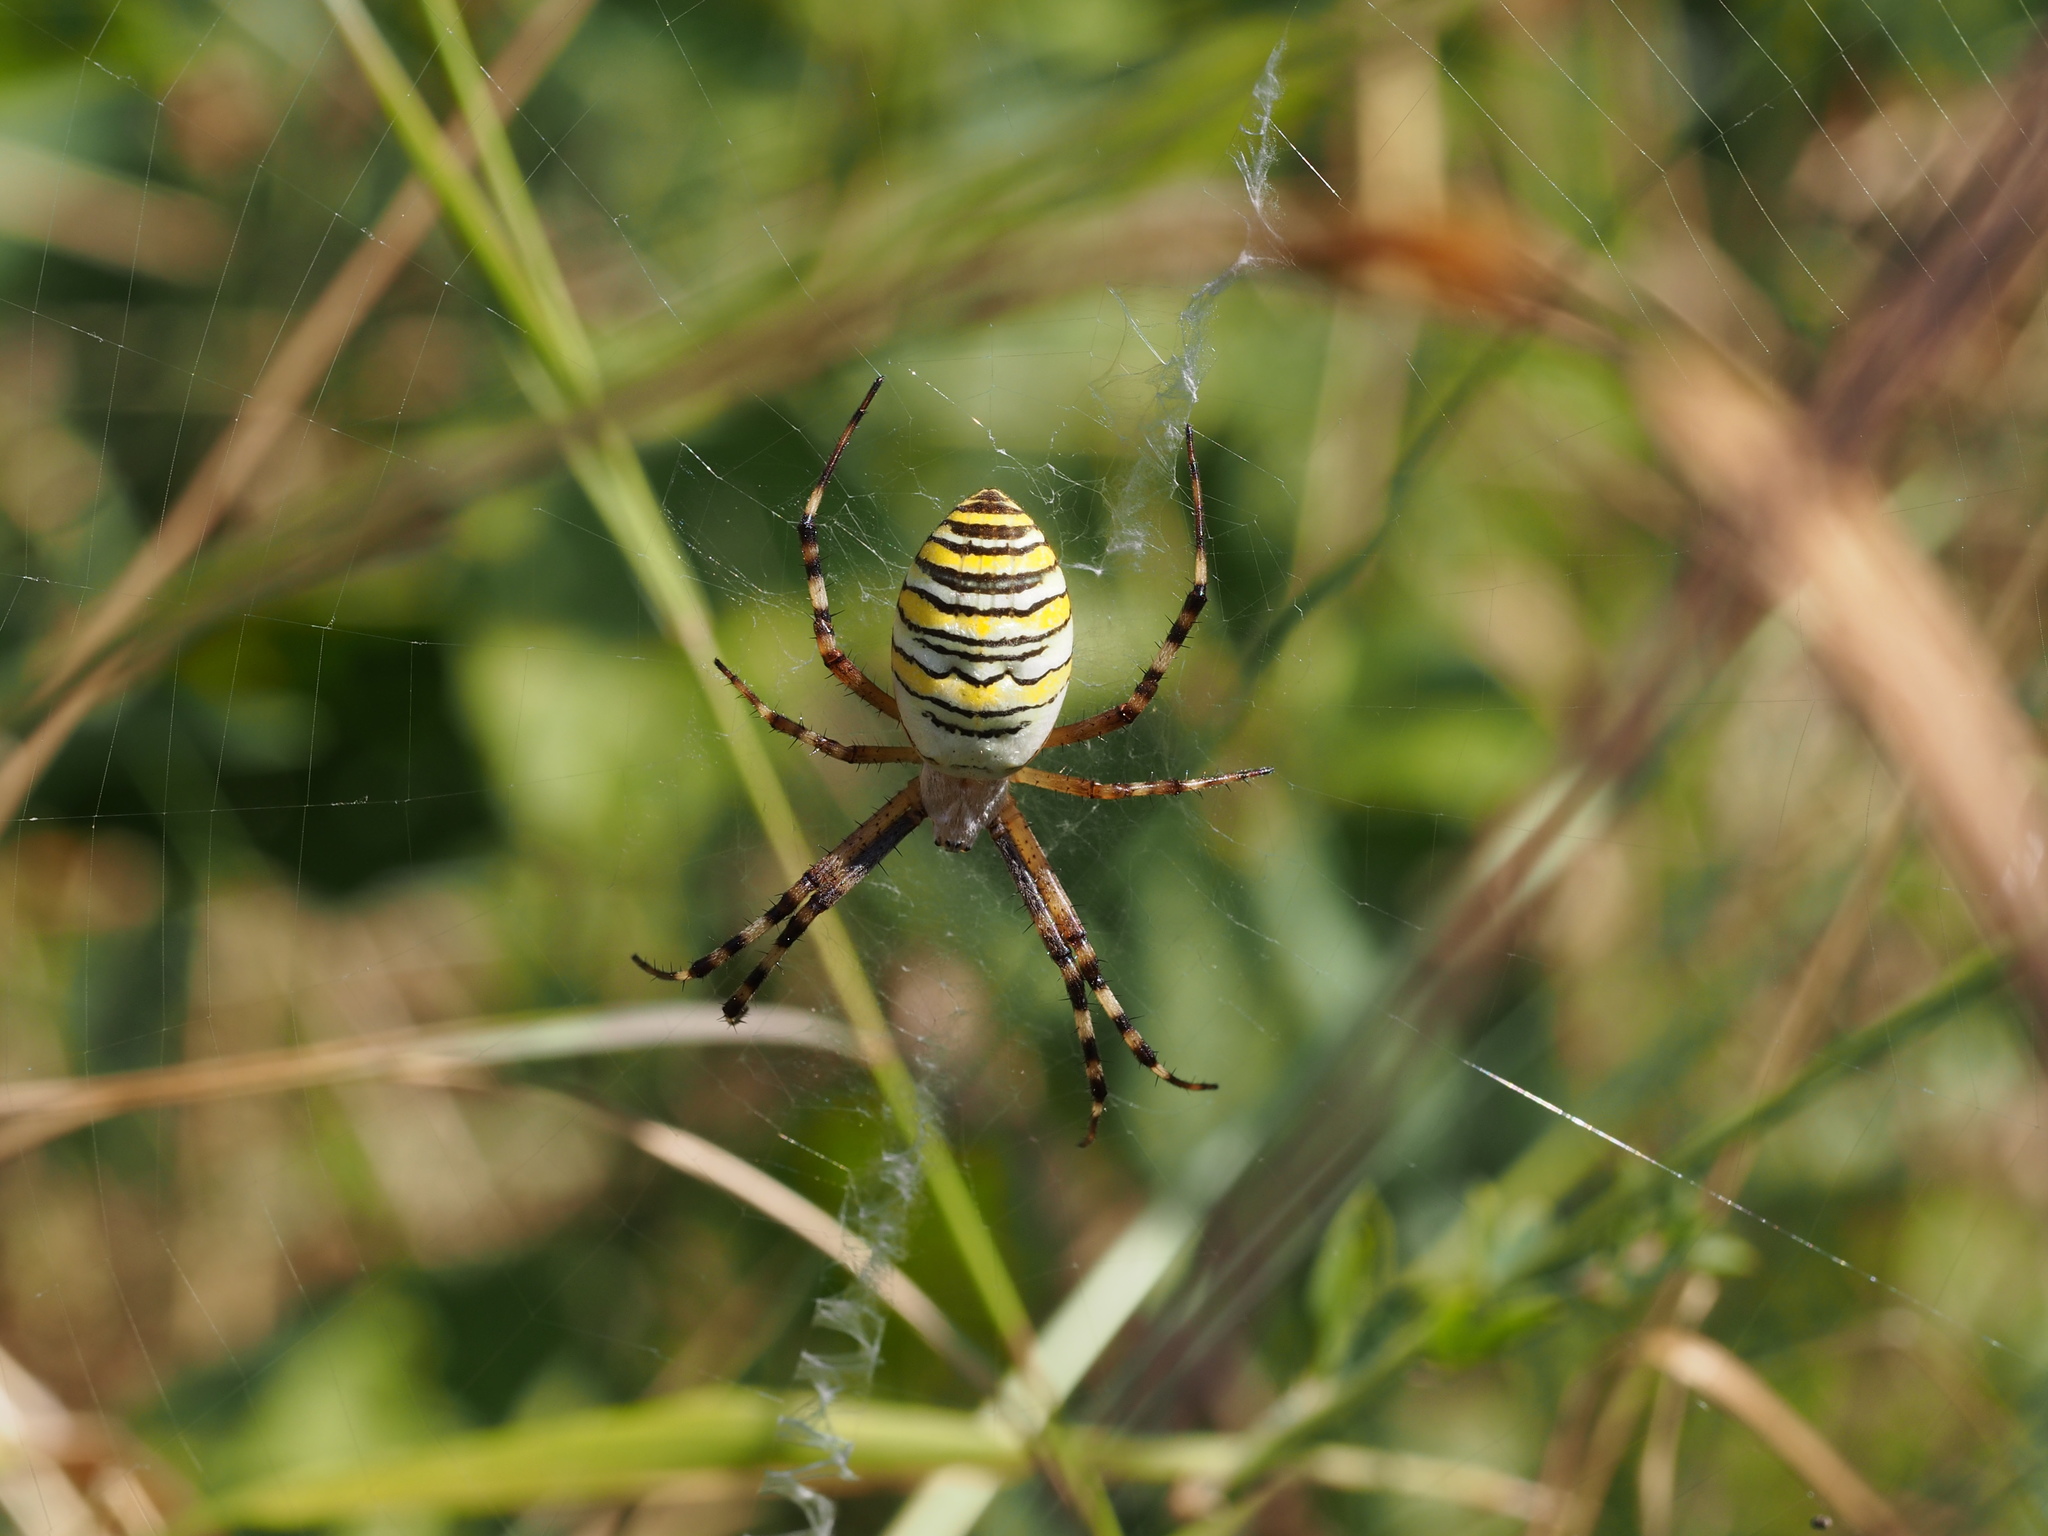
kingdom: Animalia
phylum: Arthropoda
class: Arachnida
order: Araneae
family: Araneidae
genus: Argiope
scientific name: Argiope bruennichi
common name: Wasp spider
